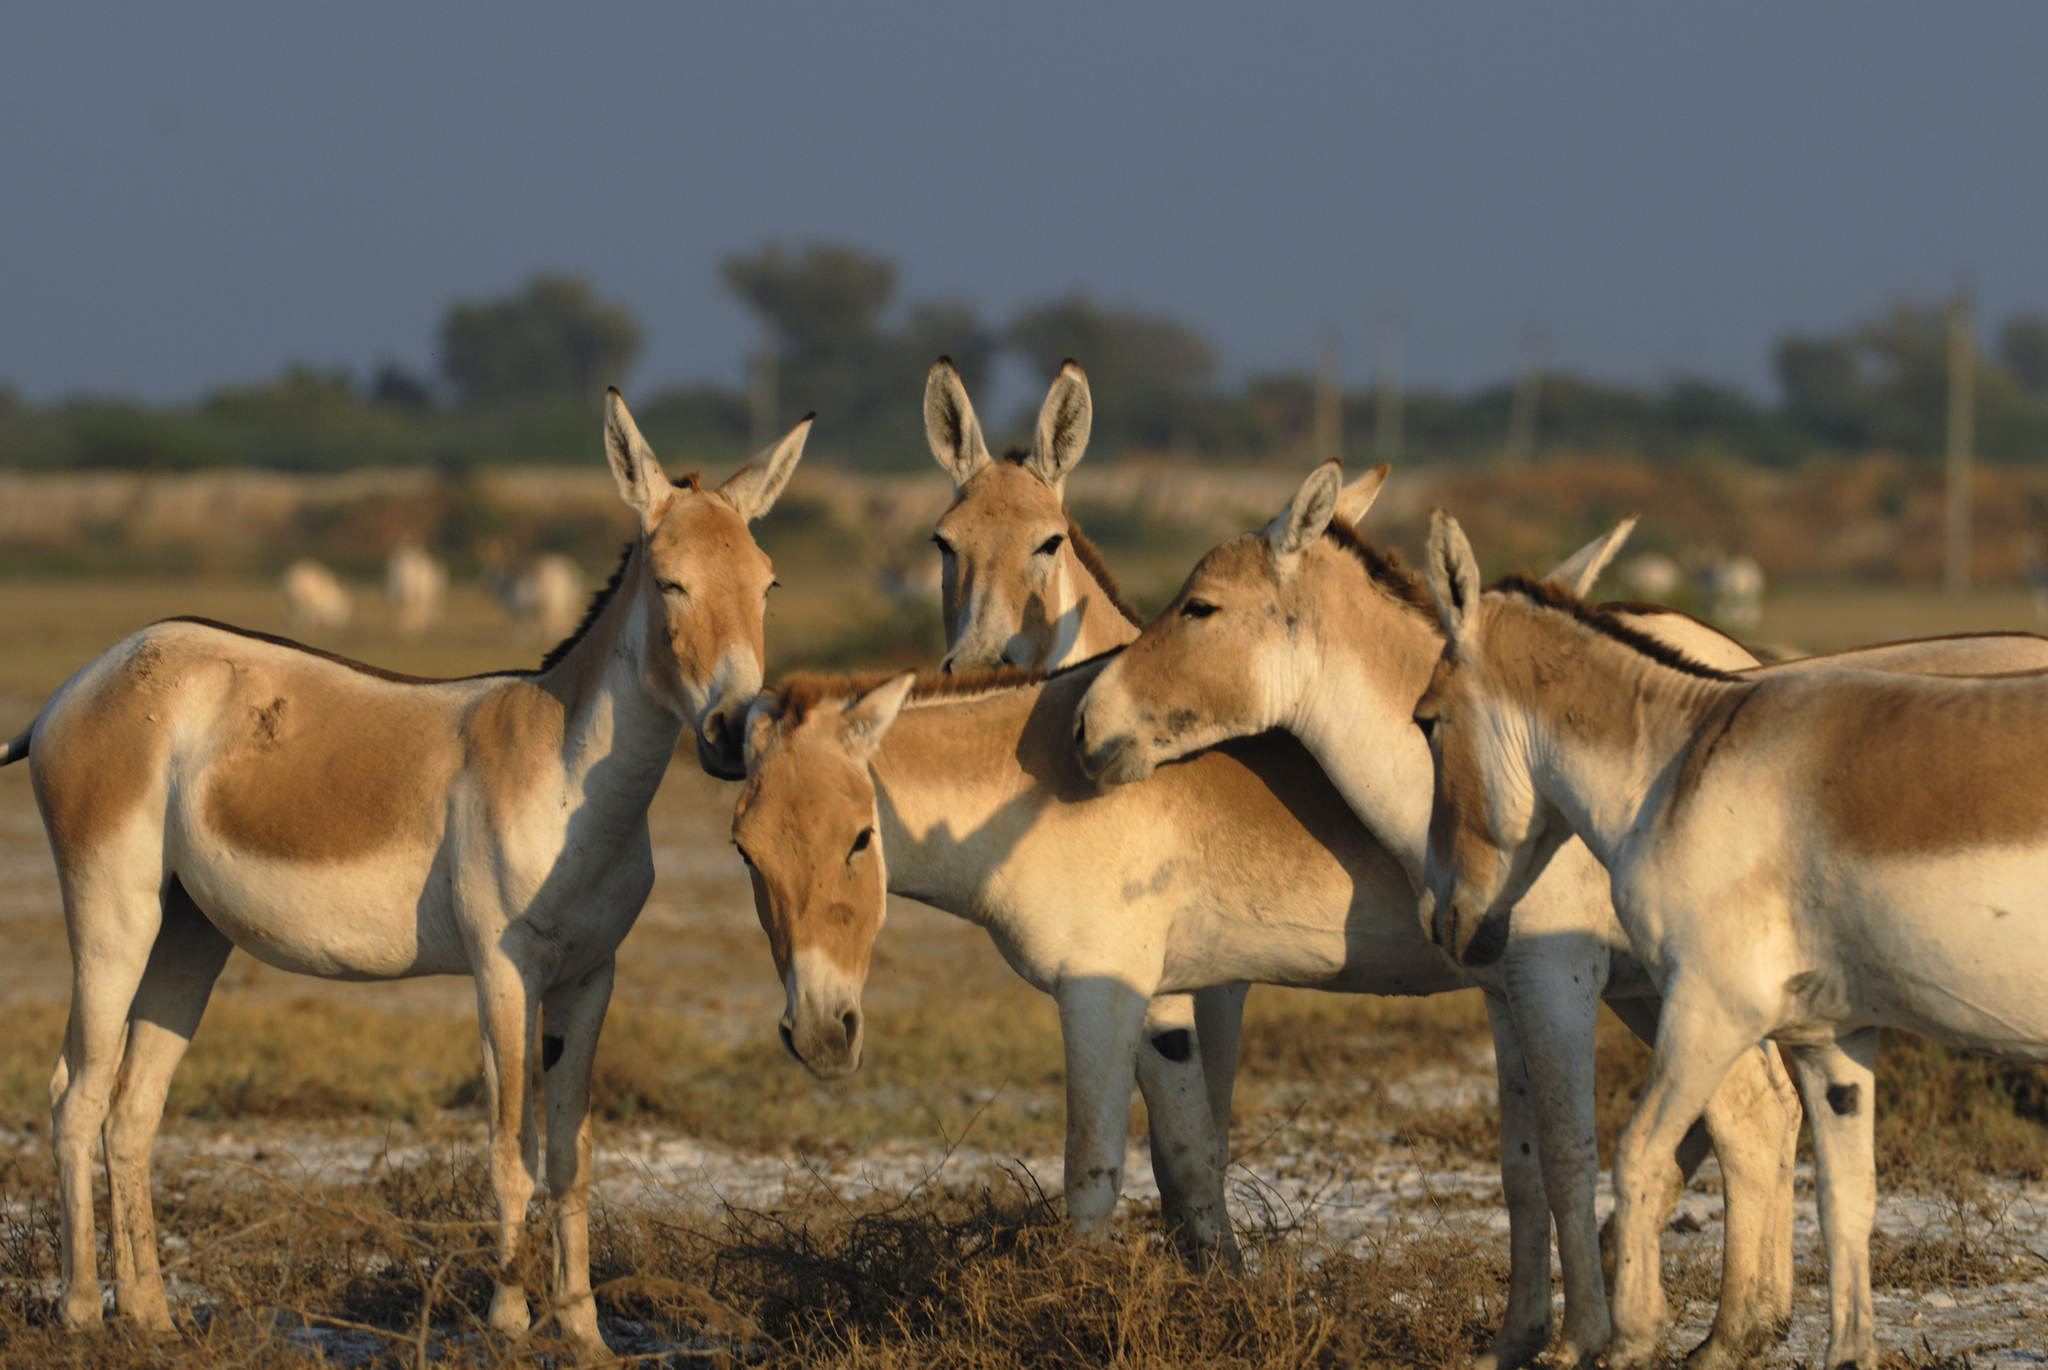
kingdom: Animalia
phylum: Chordata
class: Mammalia
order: Perissodactyla
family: Equidae
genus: Equus
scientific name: Equus khur
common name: Indian wild ass
